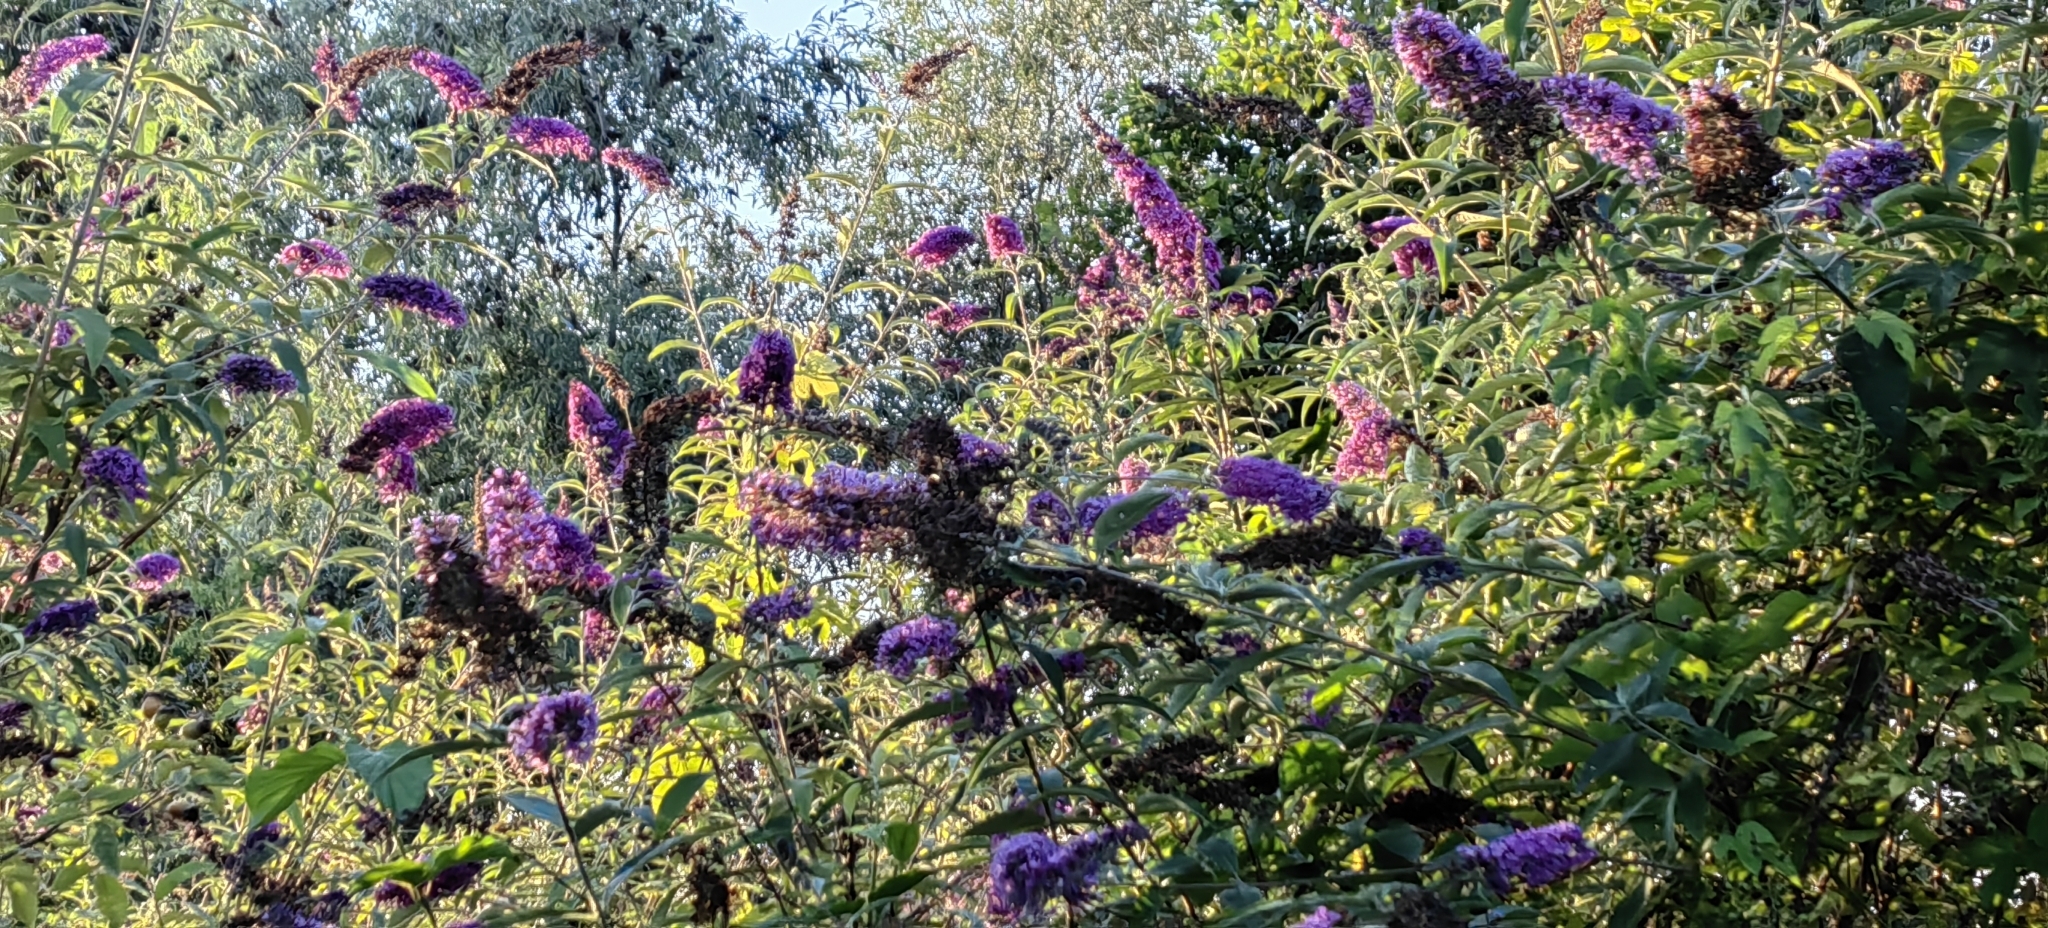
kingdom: Plantae
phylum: Tracheophyta
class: Magnoliopsida
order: Lamiales
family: Scrophulariaceae
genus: Buddleja
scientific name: Buddleja davidii
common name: Butterfly-bush
